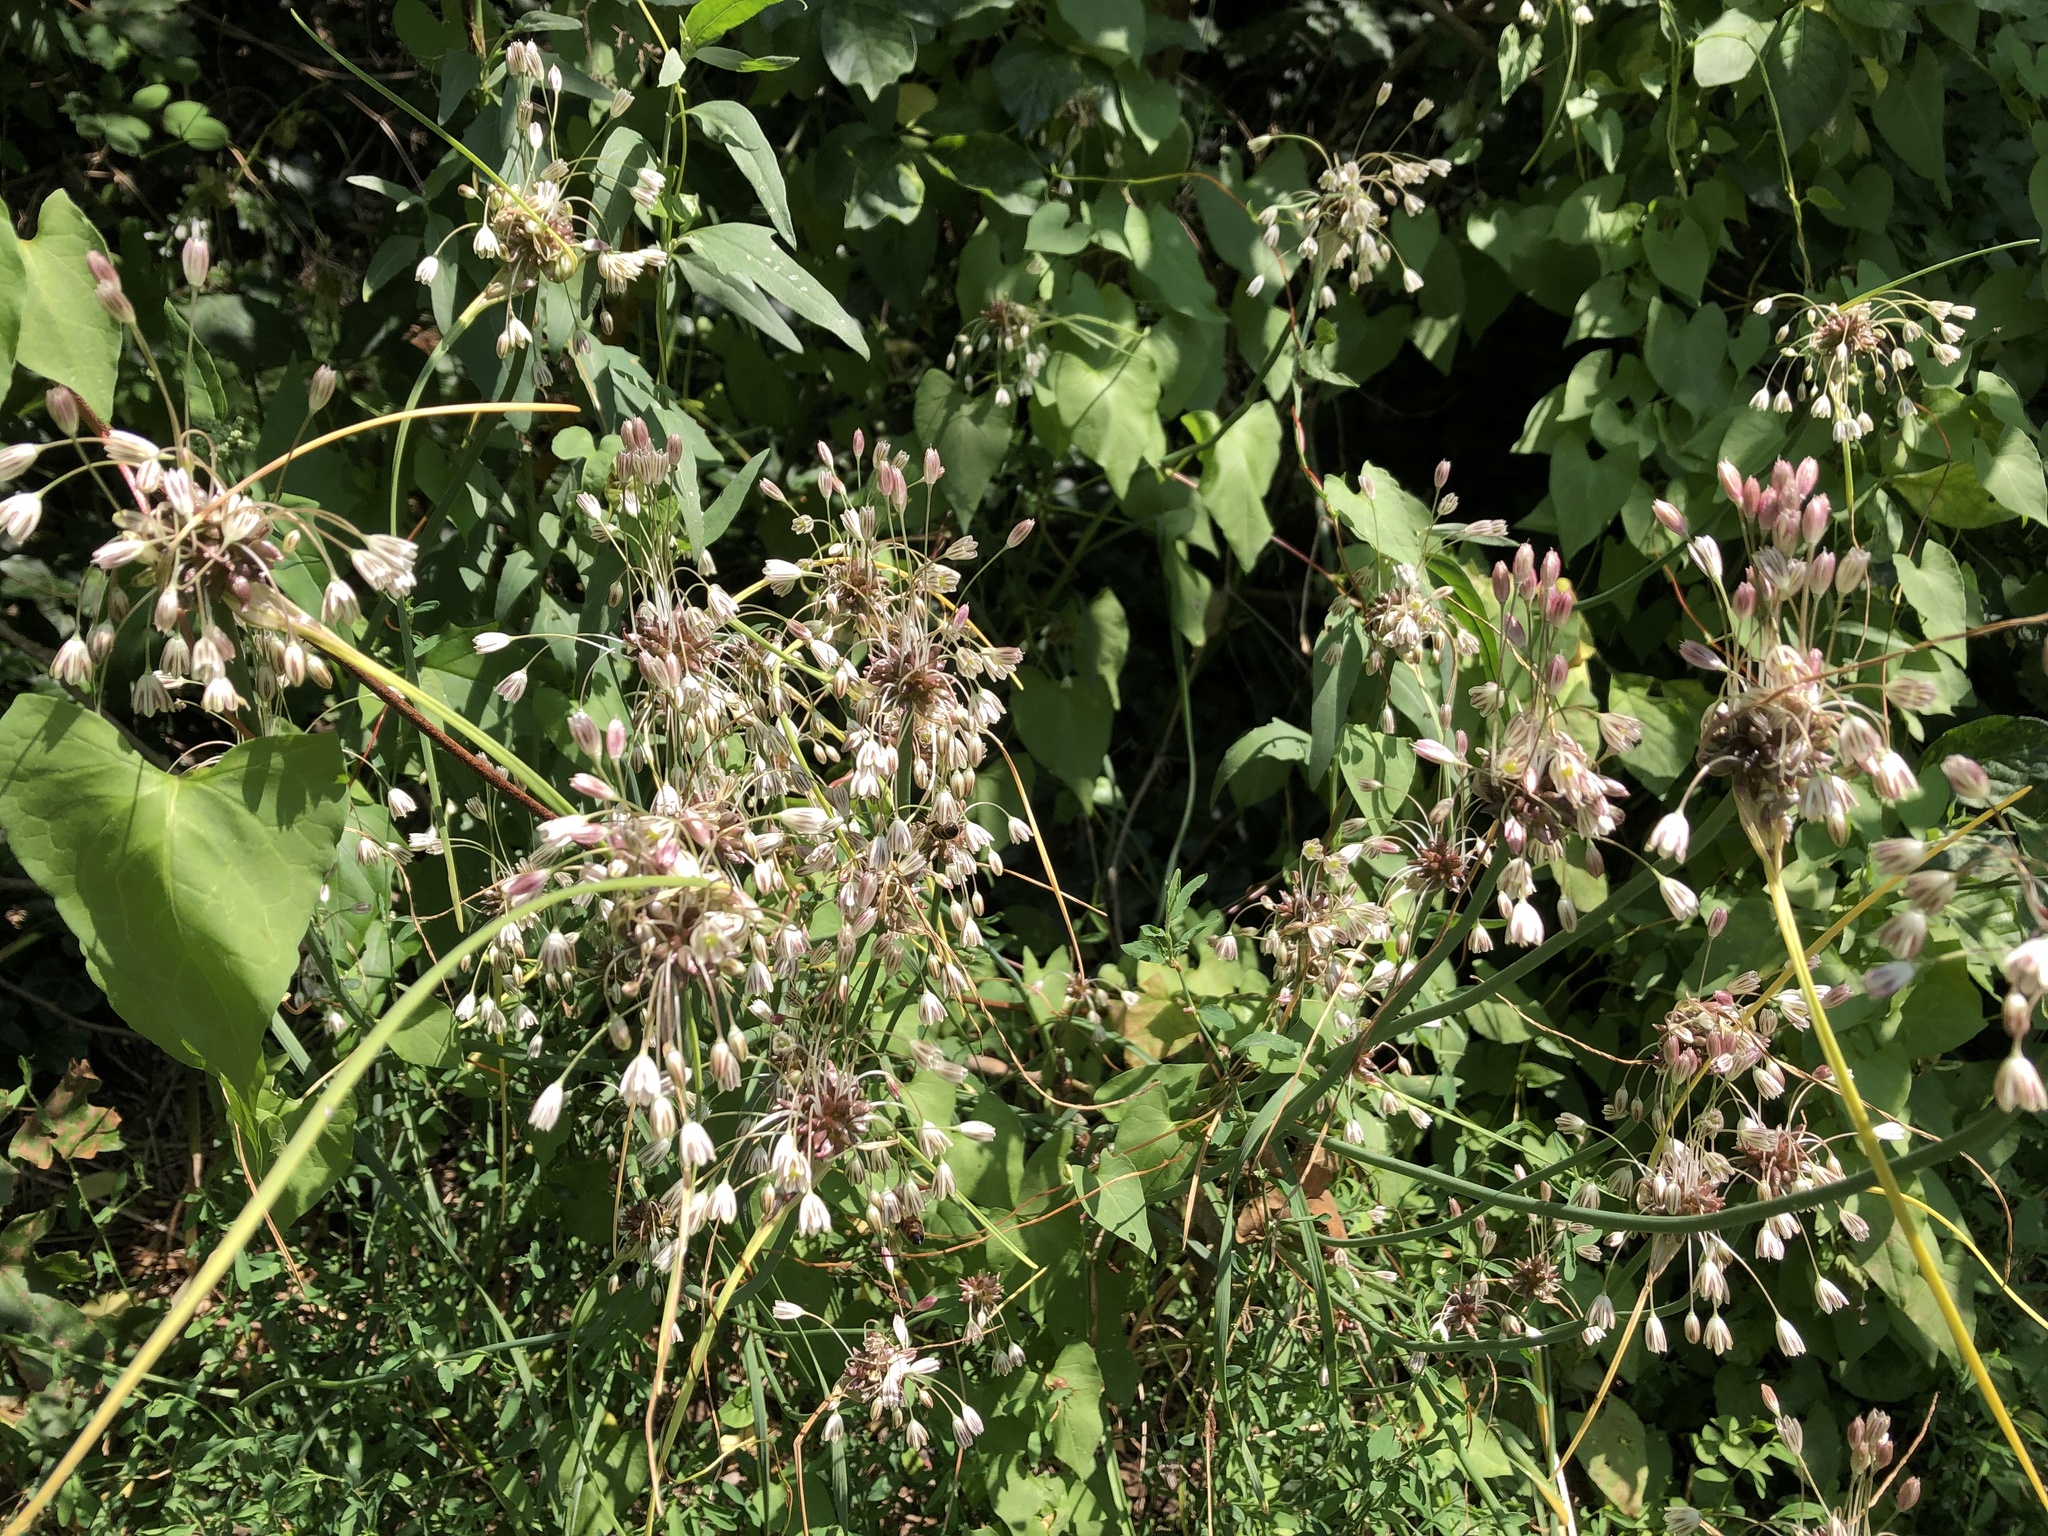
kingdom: Plantae
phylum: Tracheophyta
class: Liliopsida
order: Asparagales
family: Amaryllidaceae
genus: Allium
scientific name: Allium oleraceum
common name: Field garlic
